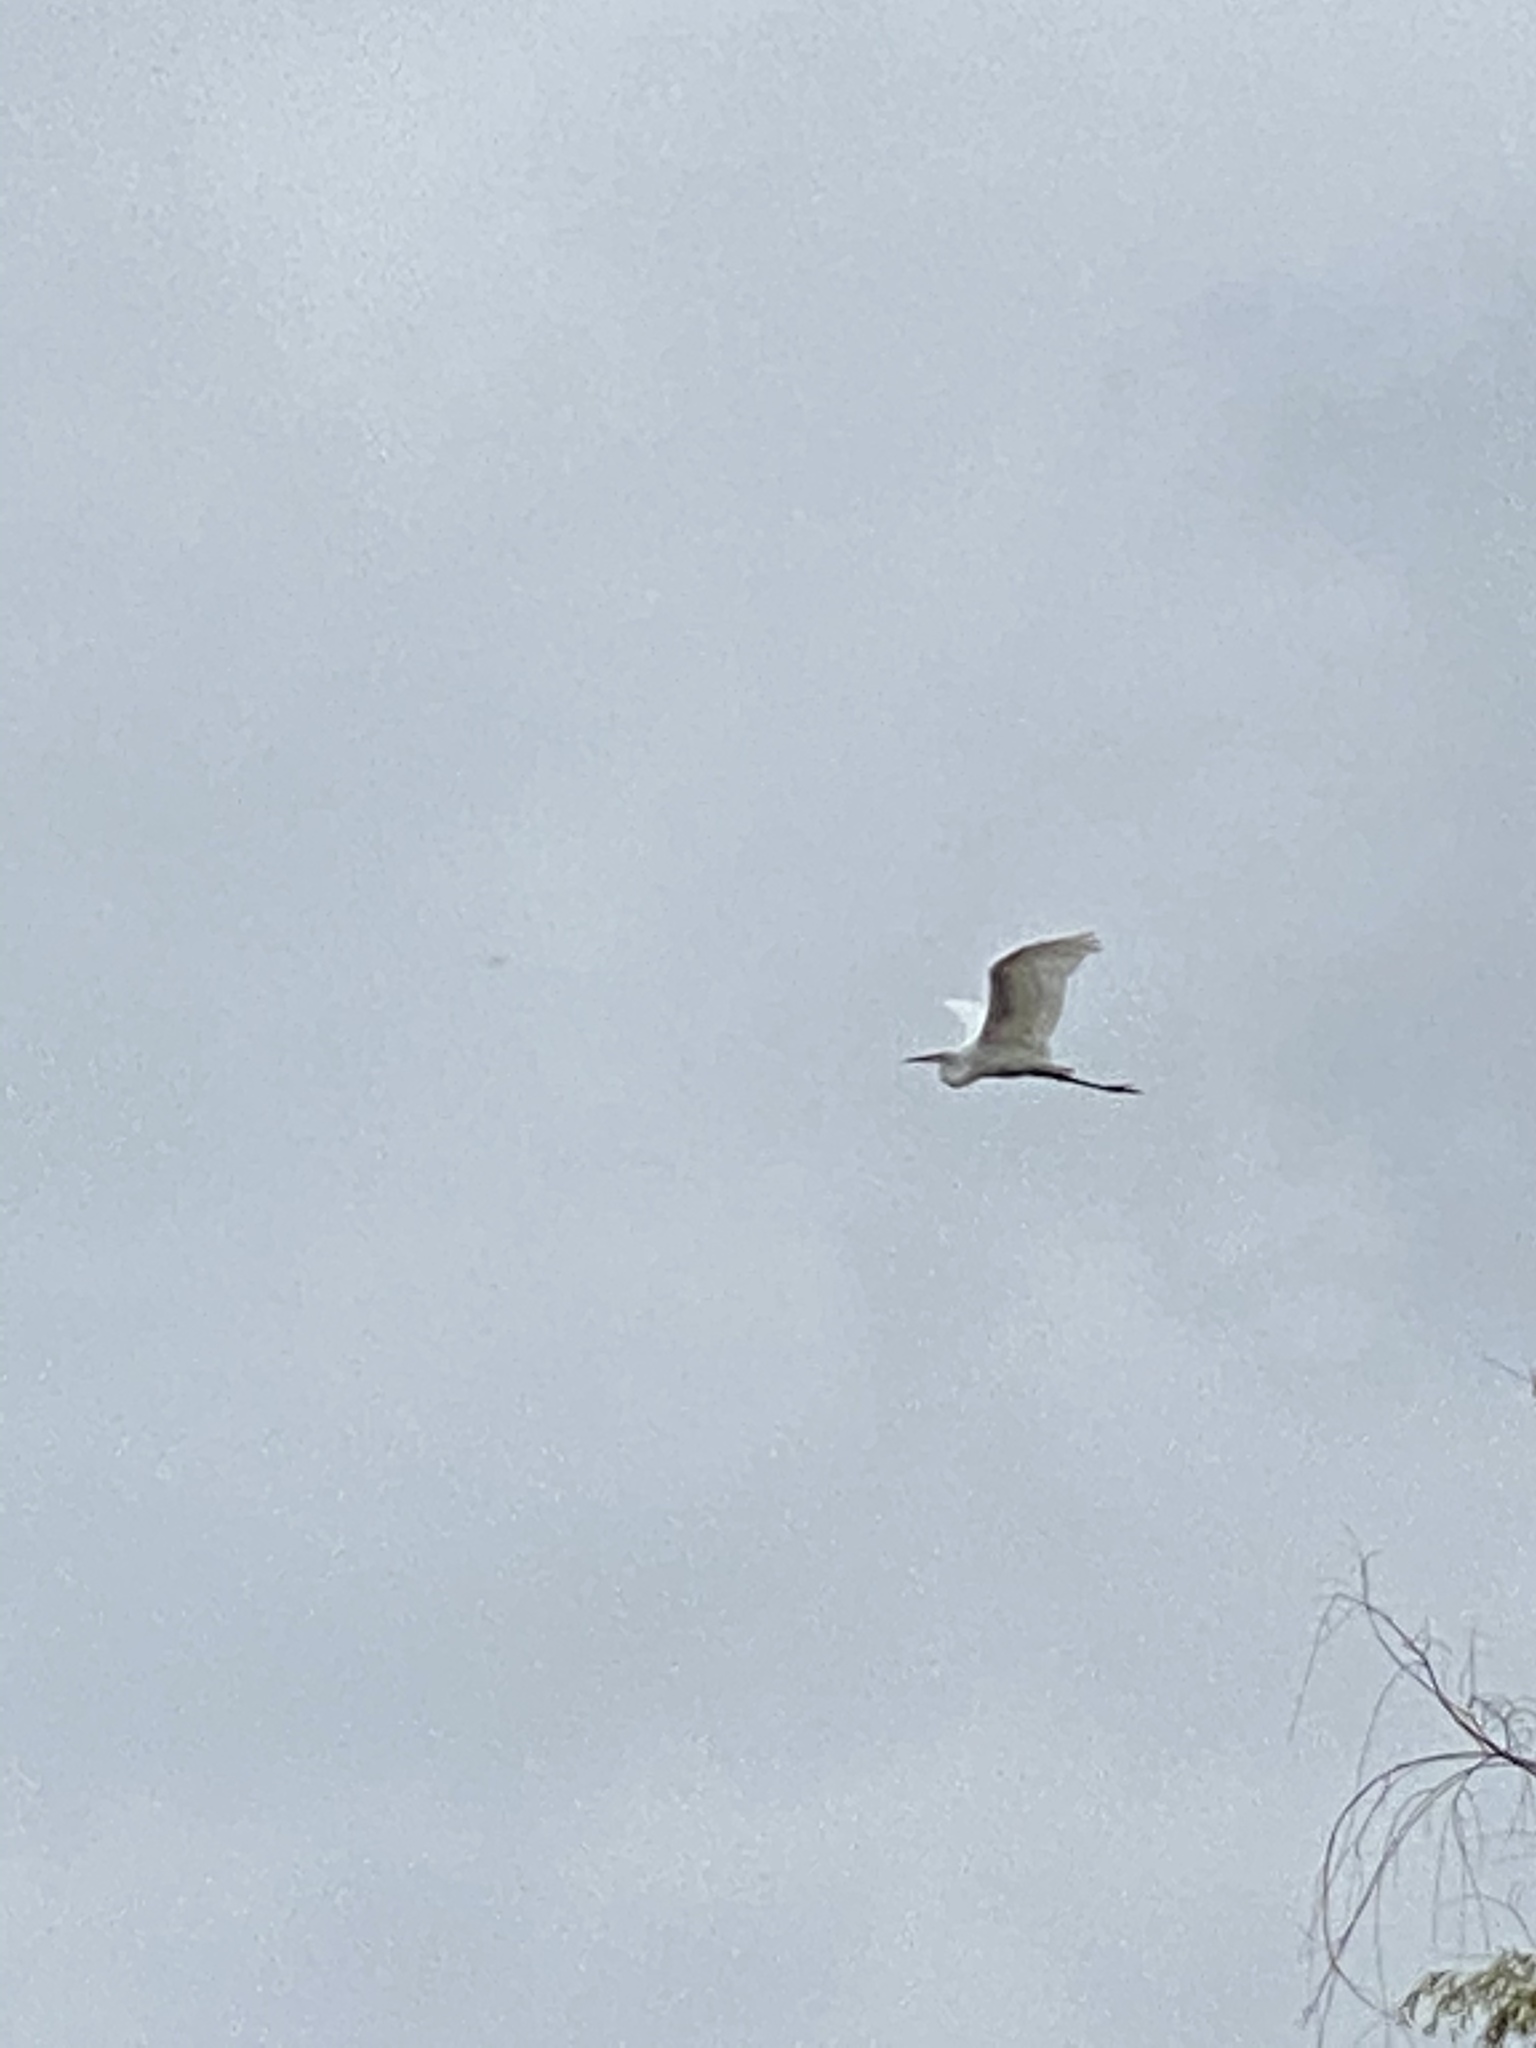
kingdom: Animalia
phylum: Chordata
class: Aves
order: Pelecaniformes
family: Ardeidae
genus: Ardea
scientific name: Ardea alba
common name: Great egret
